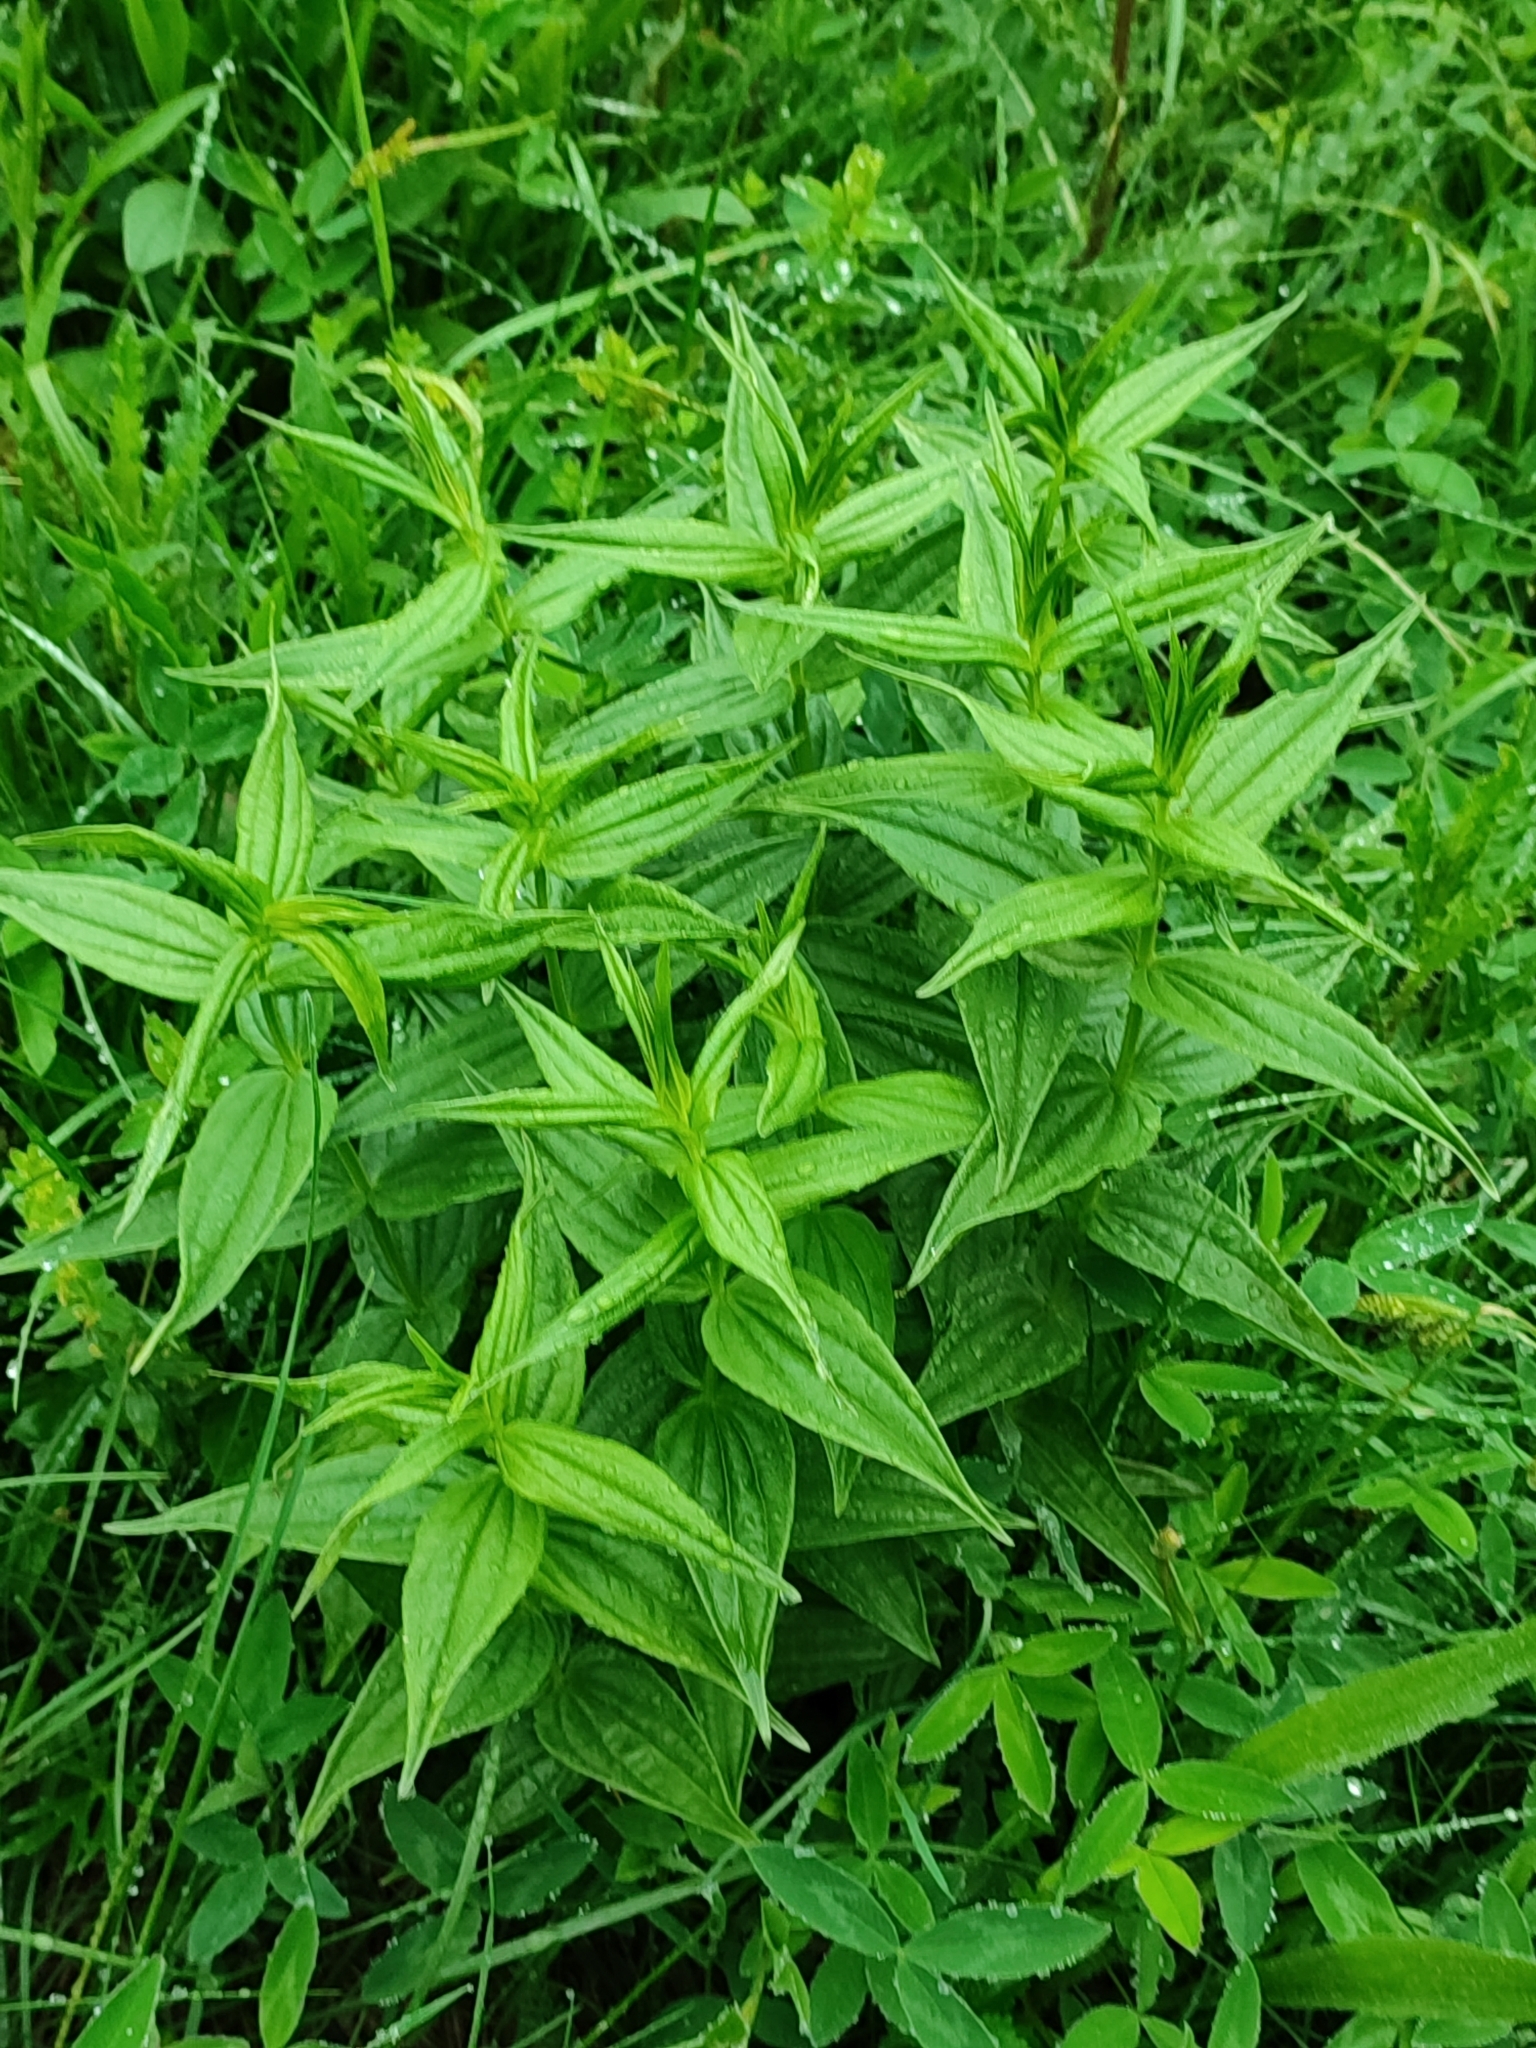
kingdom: Plantae
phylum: Tracheophyta
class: Magnoliopsida
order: Gentianales
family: Gentianaceae
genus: Gentiana
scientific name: Gentiana asclepiadea
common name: Willow gentian
